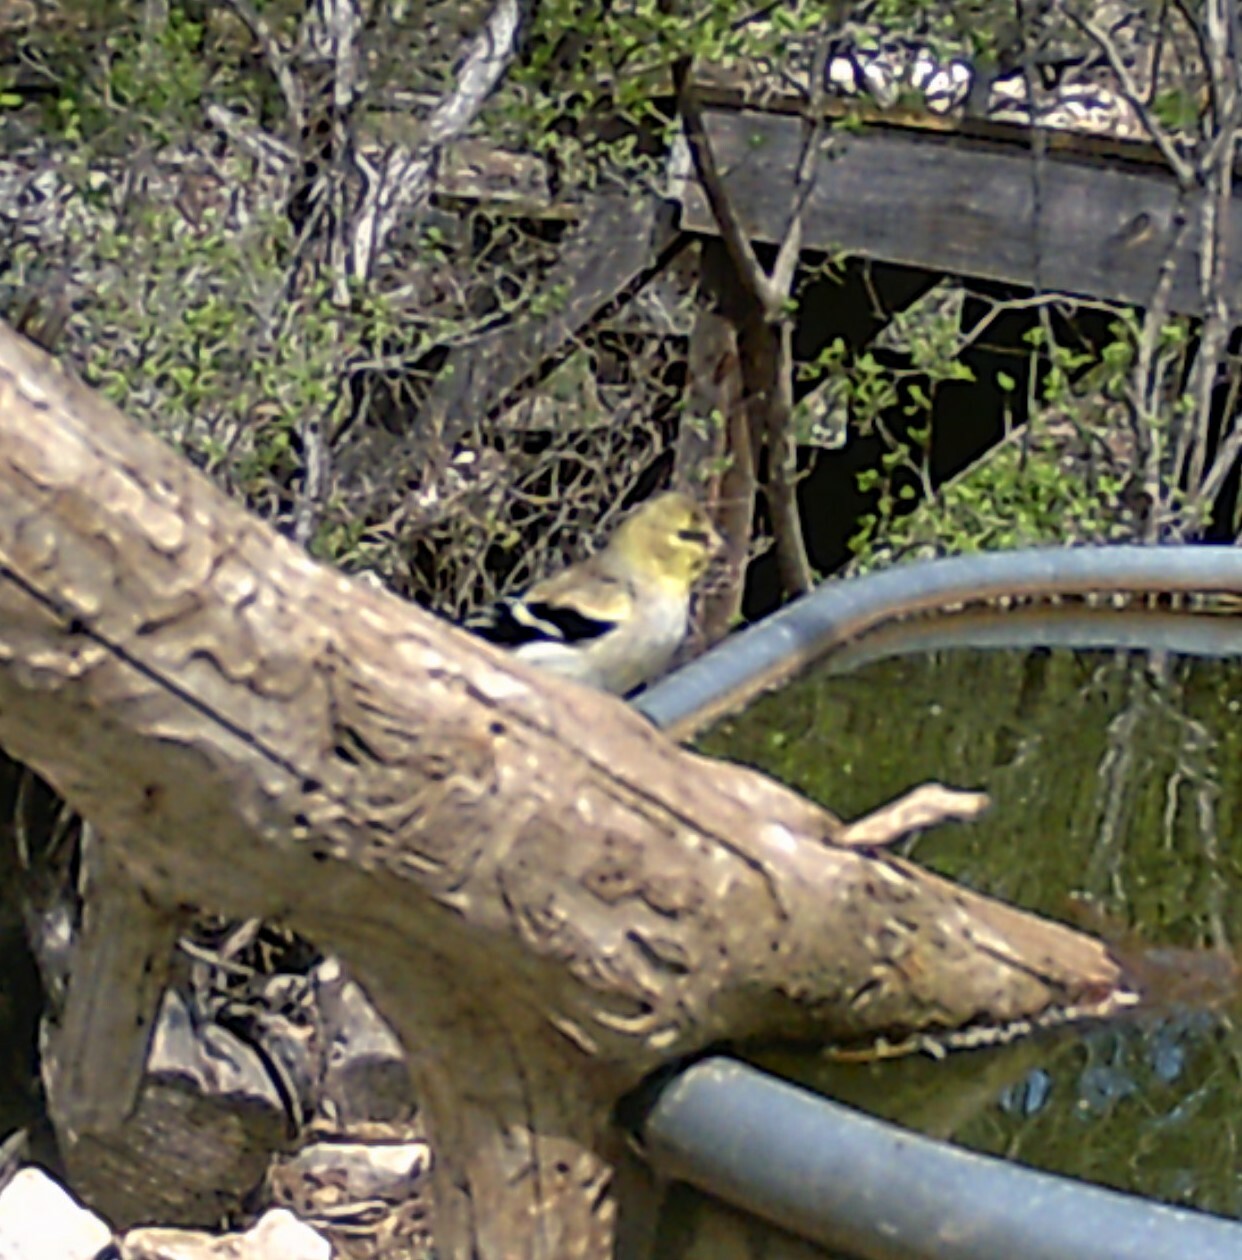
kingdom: Animalia
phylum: Chordata
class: Aves
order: Passeriformes
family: Fringillidae
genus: Spinus
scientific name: Spinus tristis
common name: American goldfinch
